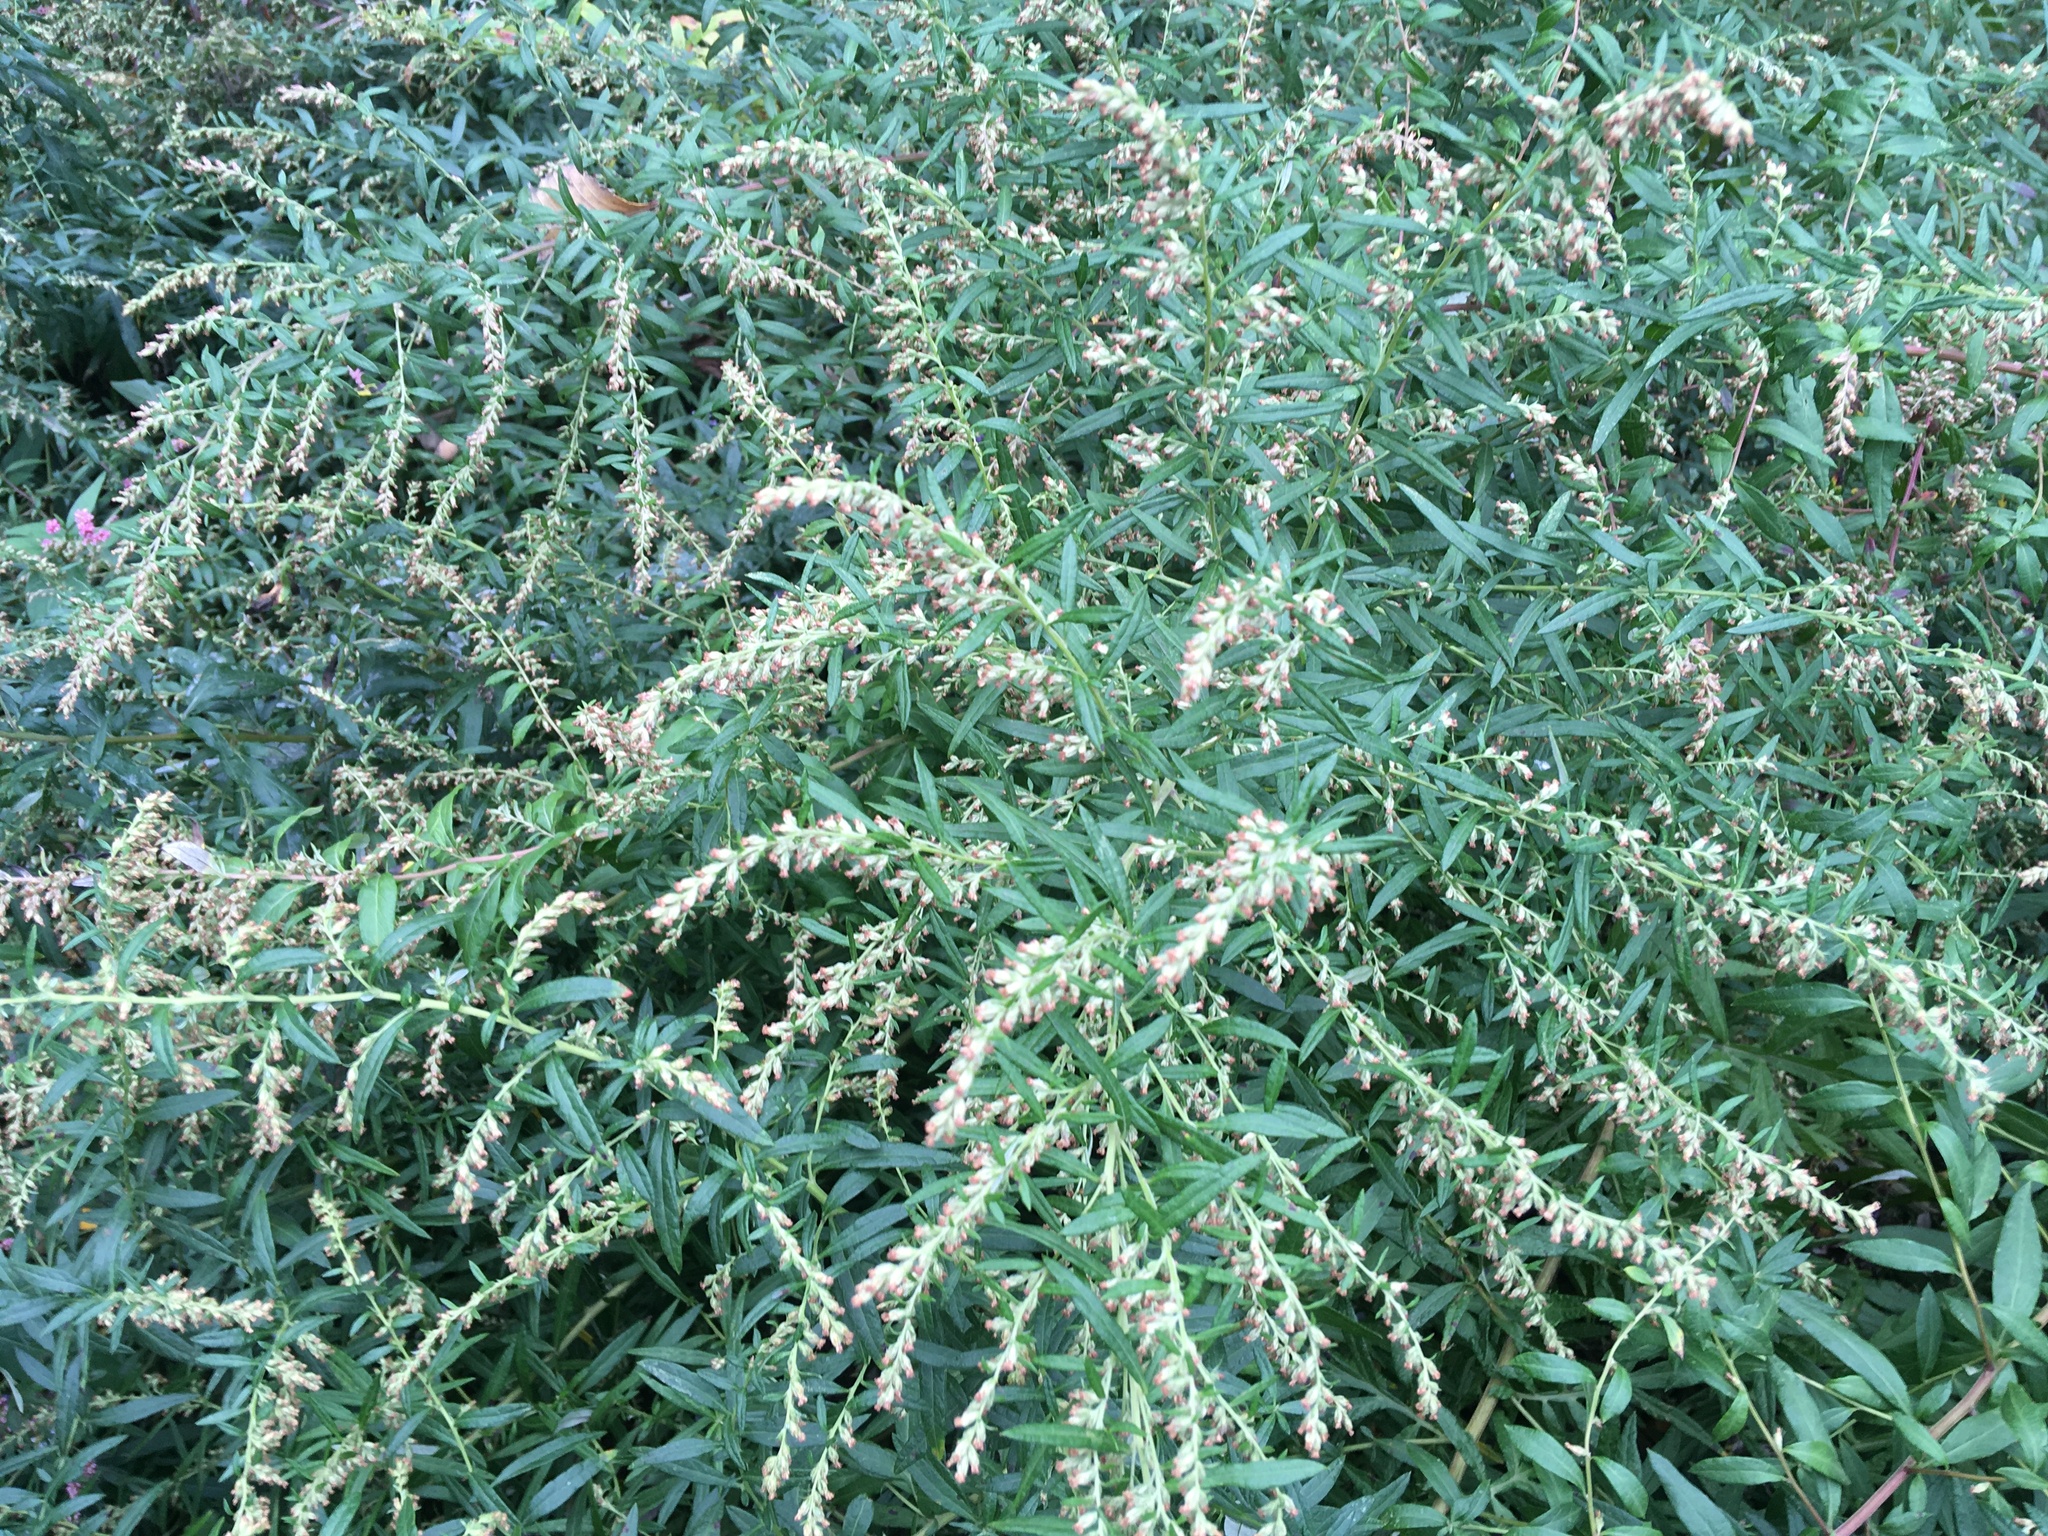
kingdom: Plantae
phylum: Tracheophyta
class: Magnoliopsida
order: Asterales
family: Asteraceae
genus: Artemisia
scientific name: Artemisia vulgaris
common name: Mugwort
